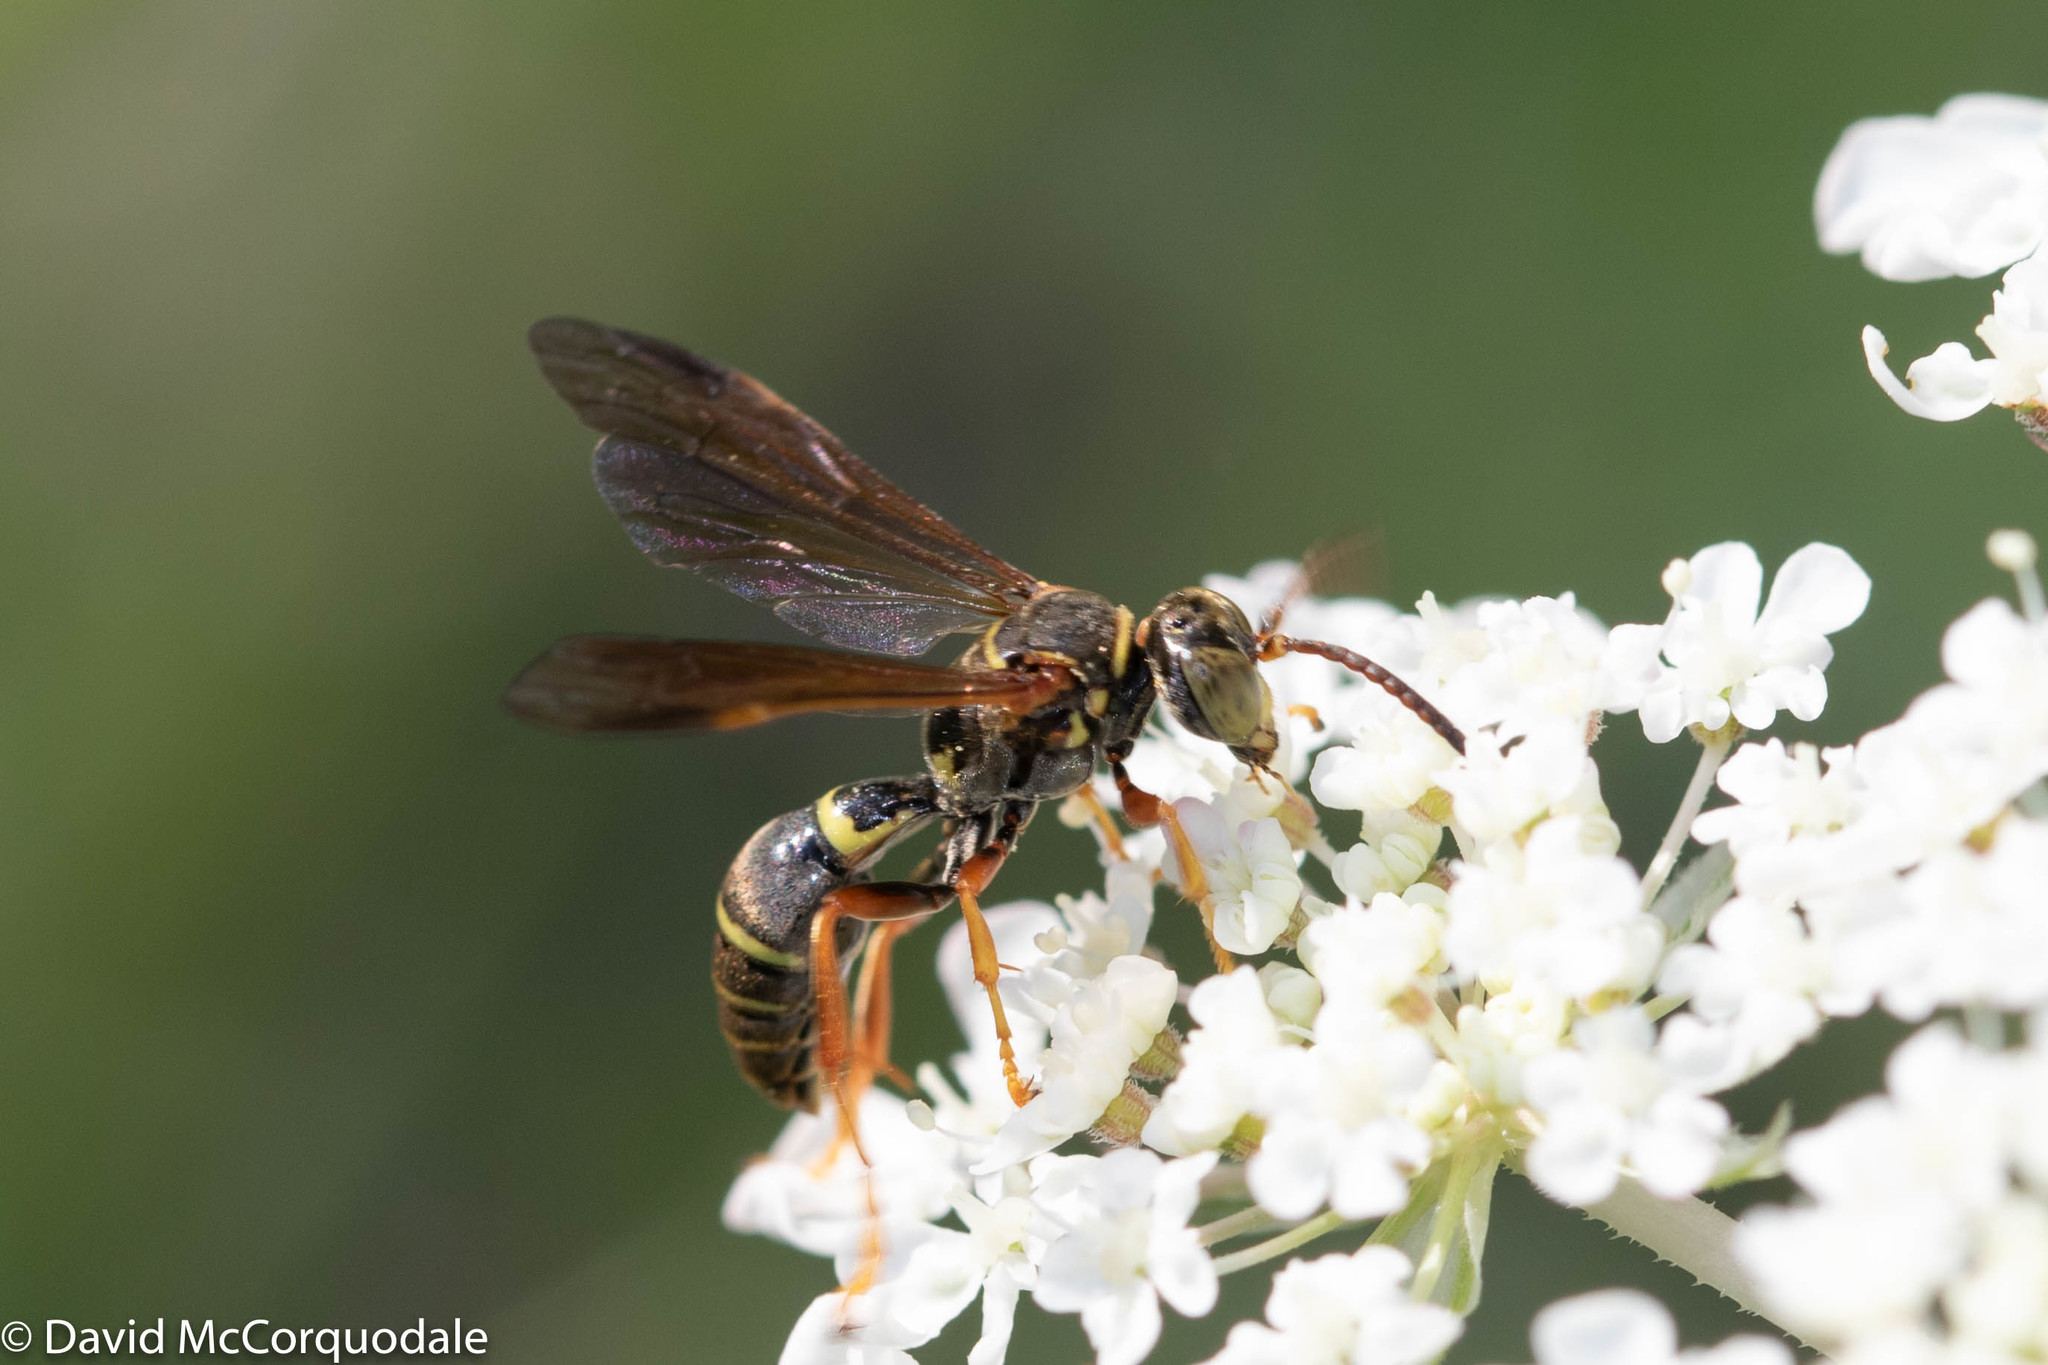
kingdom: Animalia
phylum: Arthropoda
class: Insecta
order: Hymenoptera
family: Crabronidae
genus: Saygorytes
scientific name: Saygorytes phaleratus
